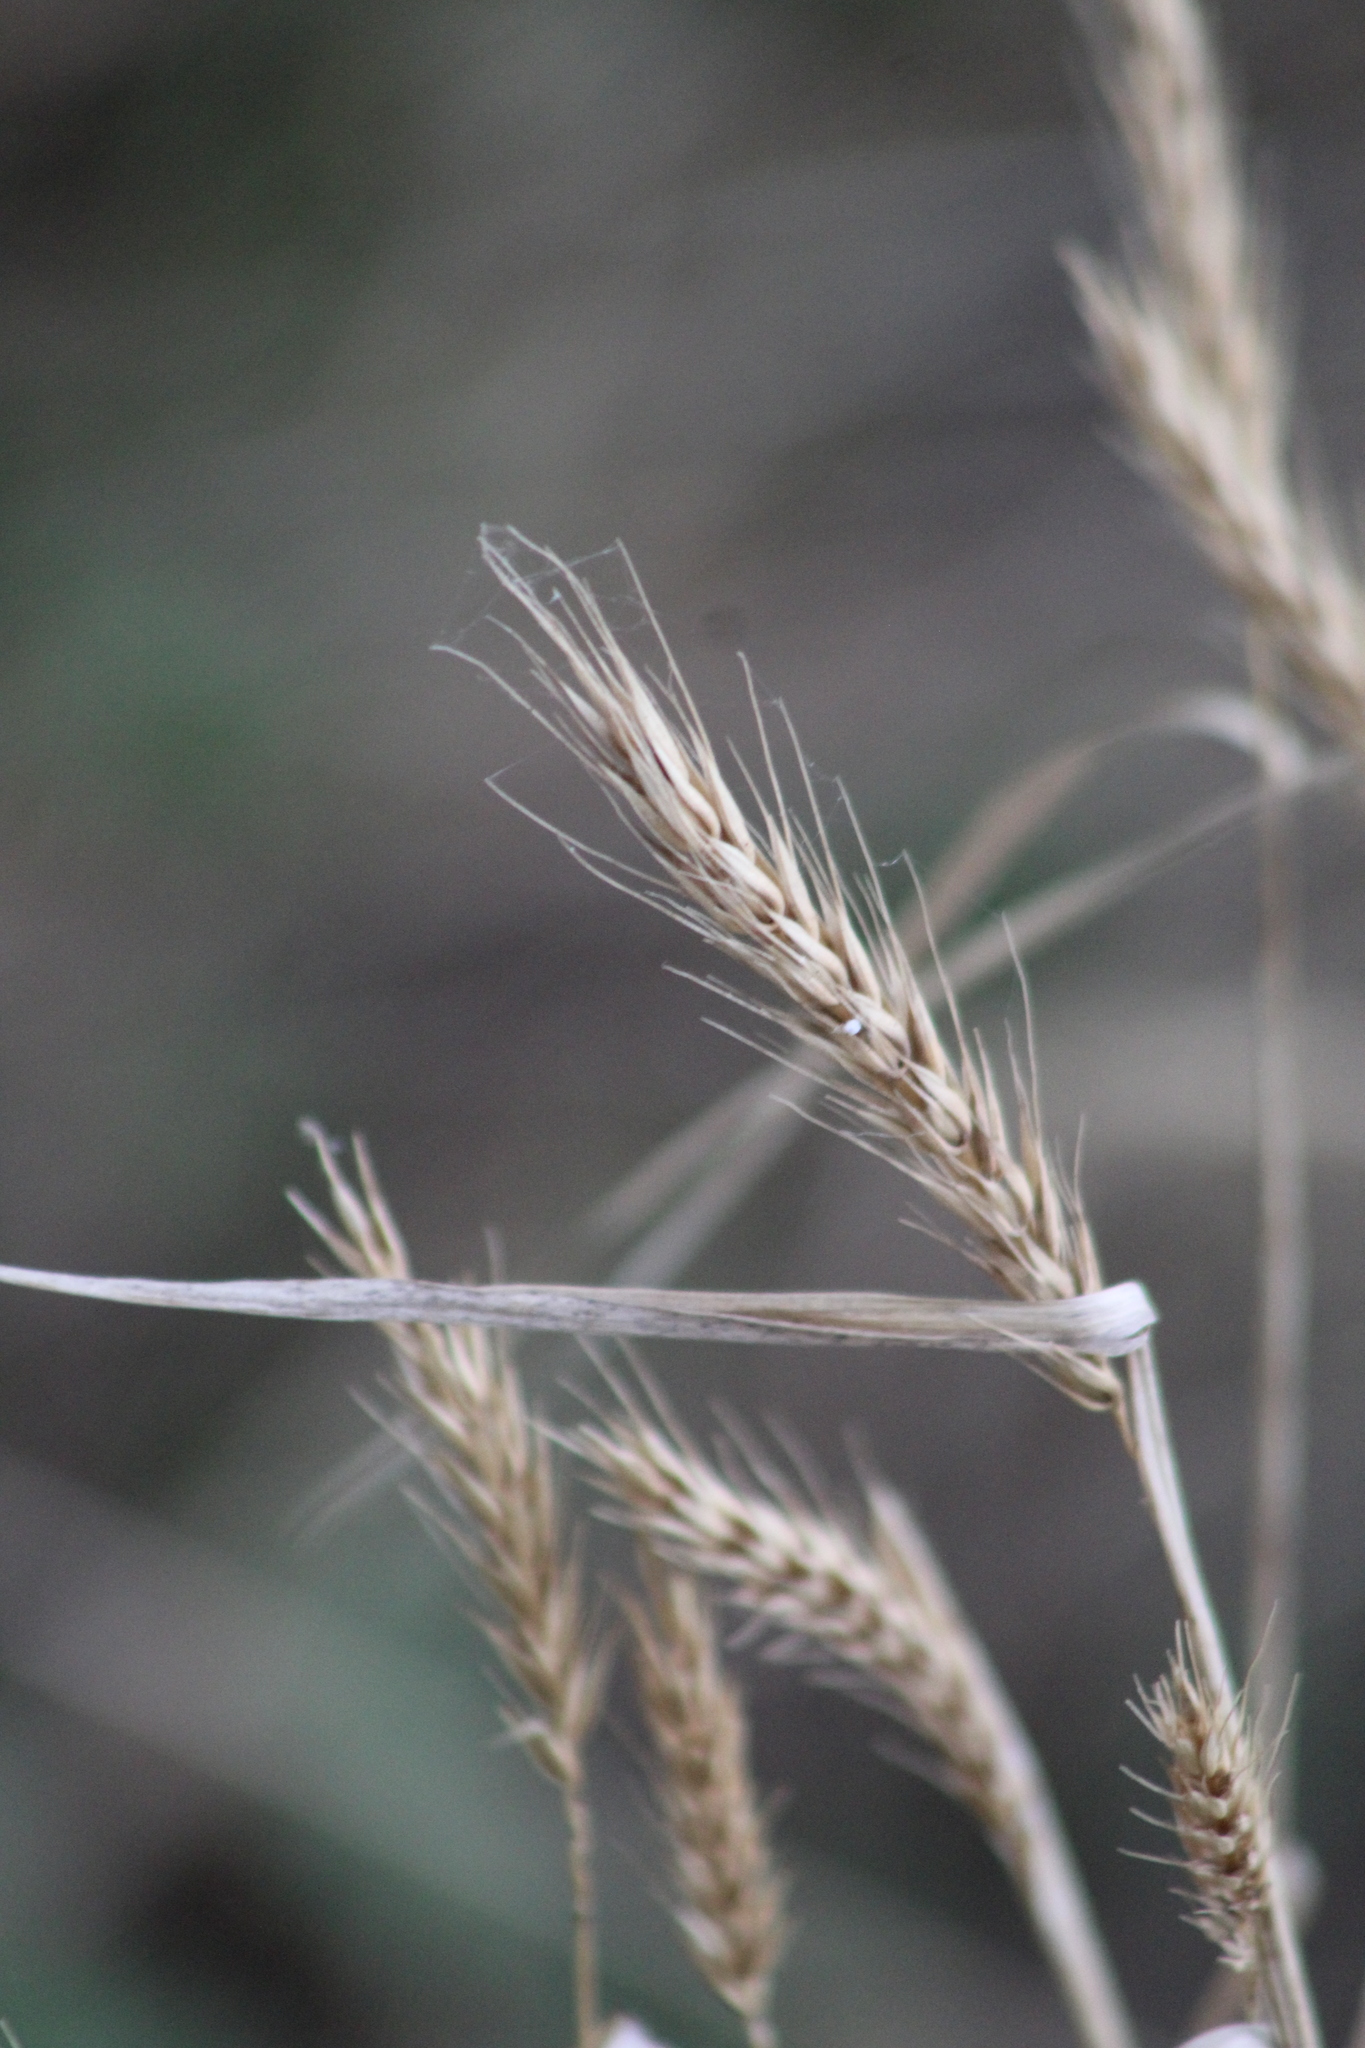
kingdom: Plantae
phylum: Tracheophyta
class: Liliopsida
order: Poales
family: Poaceae
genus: Elymus
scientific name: Elymus virginicus
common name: Common eastern wildrye
